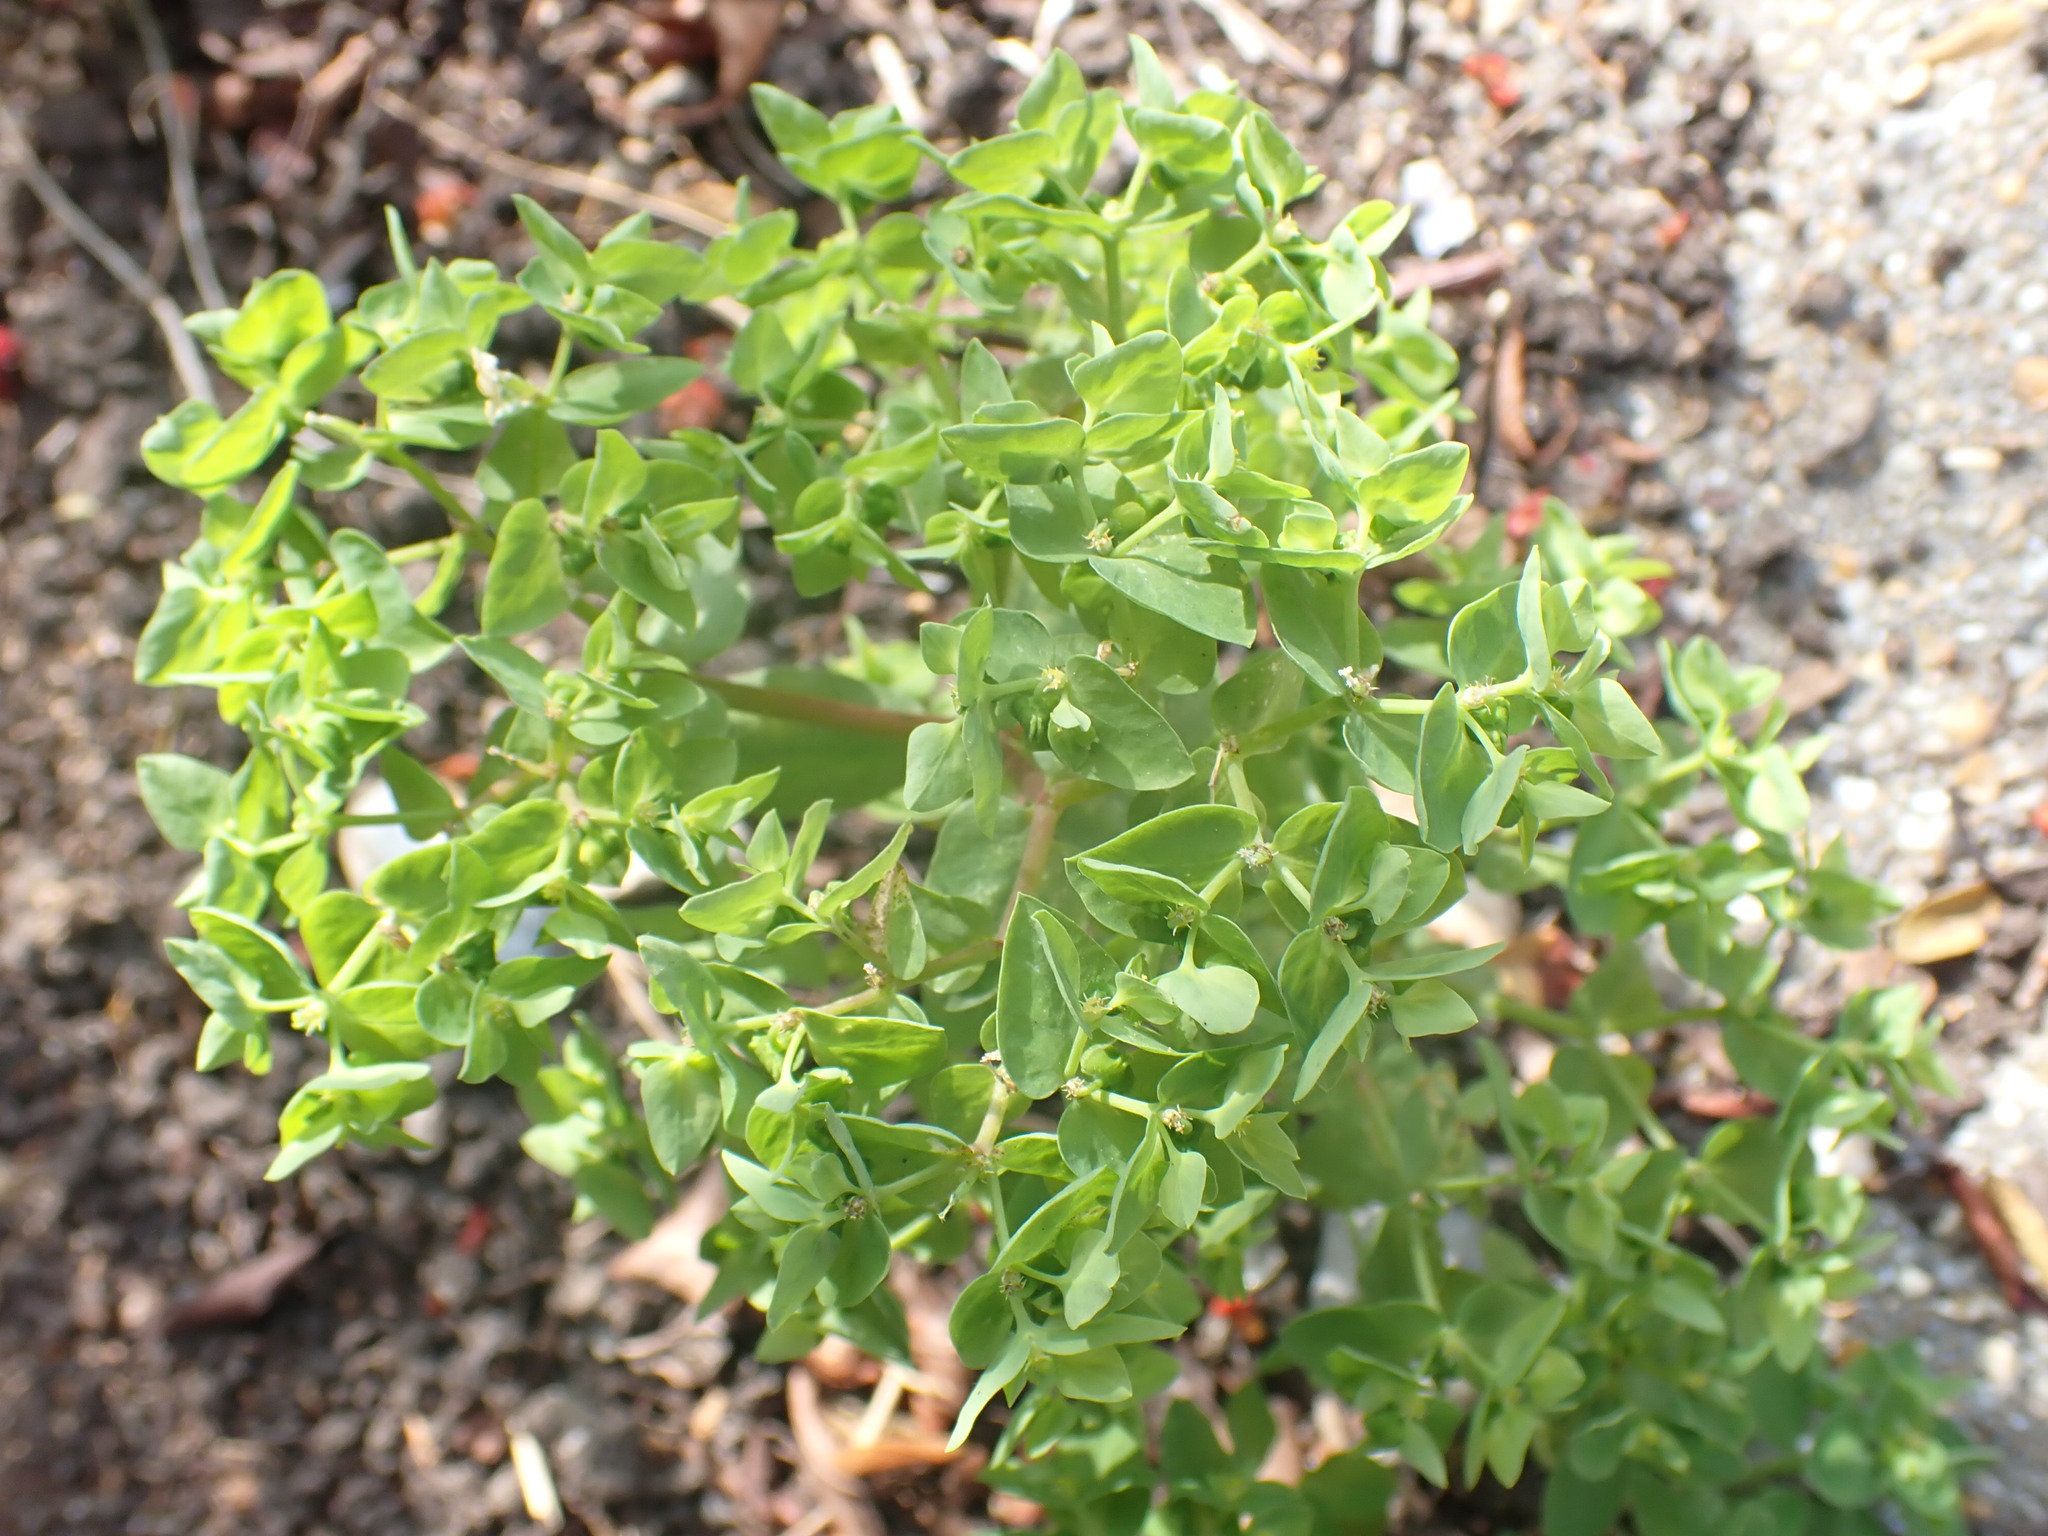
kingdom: Plantae
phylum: Tracheophyta
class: Magnoliopsida
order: Malpighiales
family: Euphorbiaceae
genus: Euphorbia
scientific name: Euphorbia peplus
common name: Petty spurge
